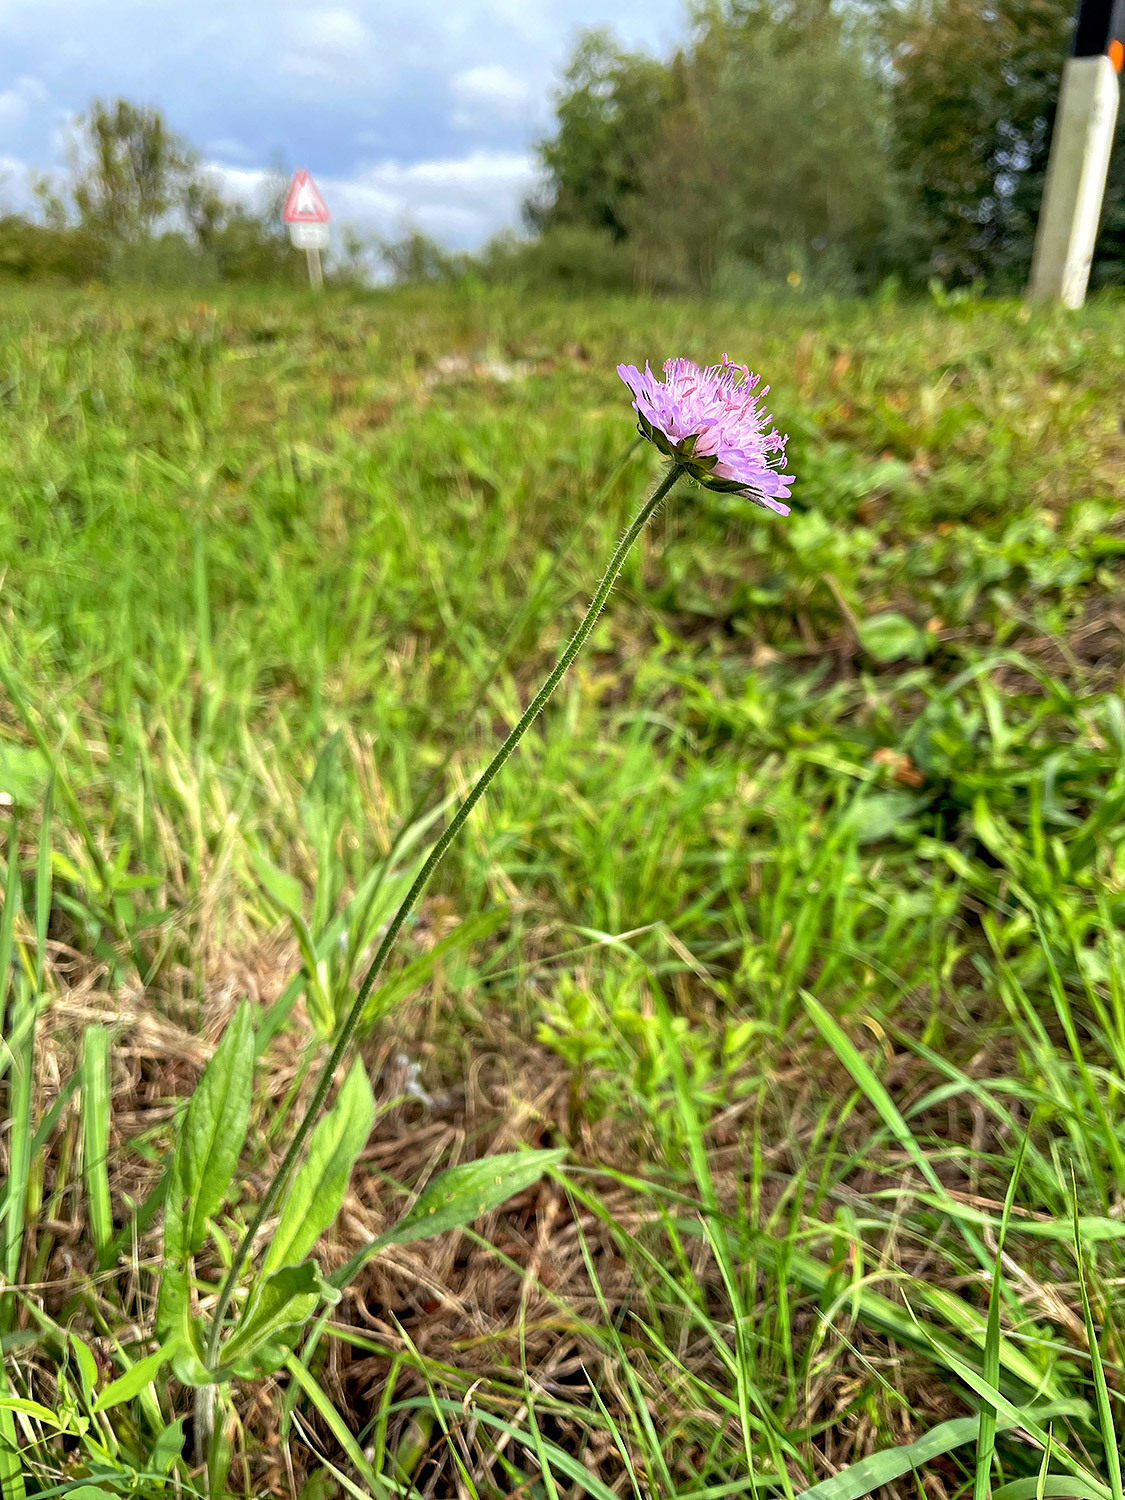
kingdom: Plantae
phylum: Tracheophyta
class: Magnoliopsida
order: Dipsacales
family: Caprifoliaceae
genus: Knautia
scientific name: Knautia arvensis
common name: Field scabiosa
